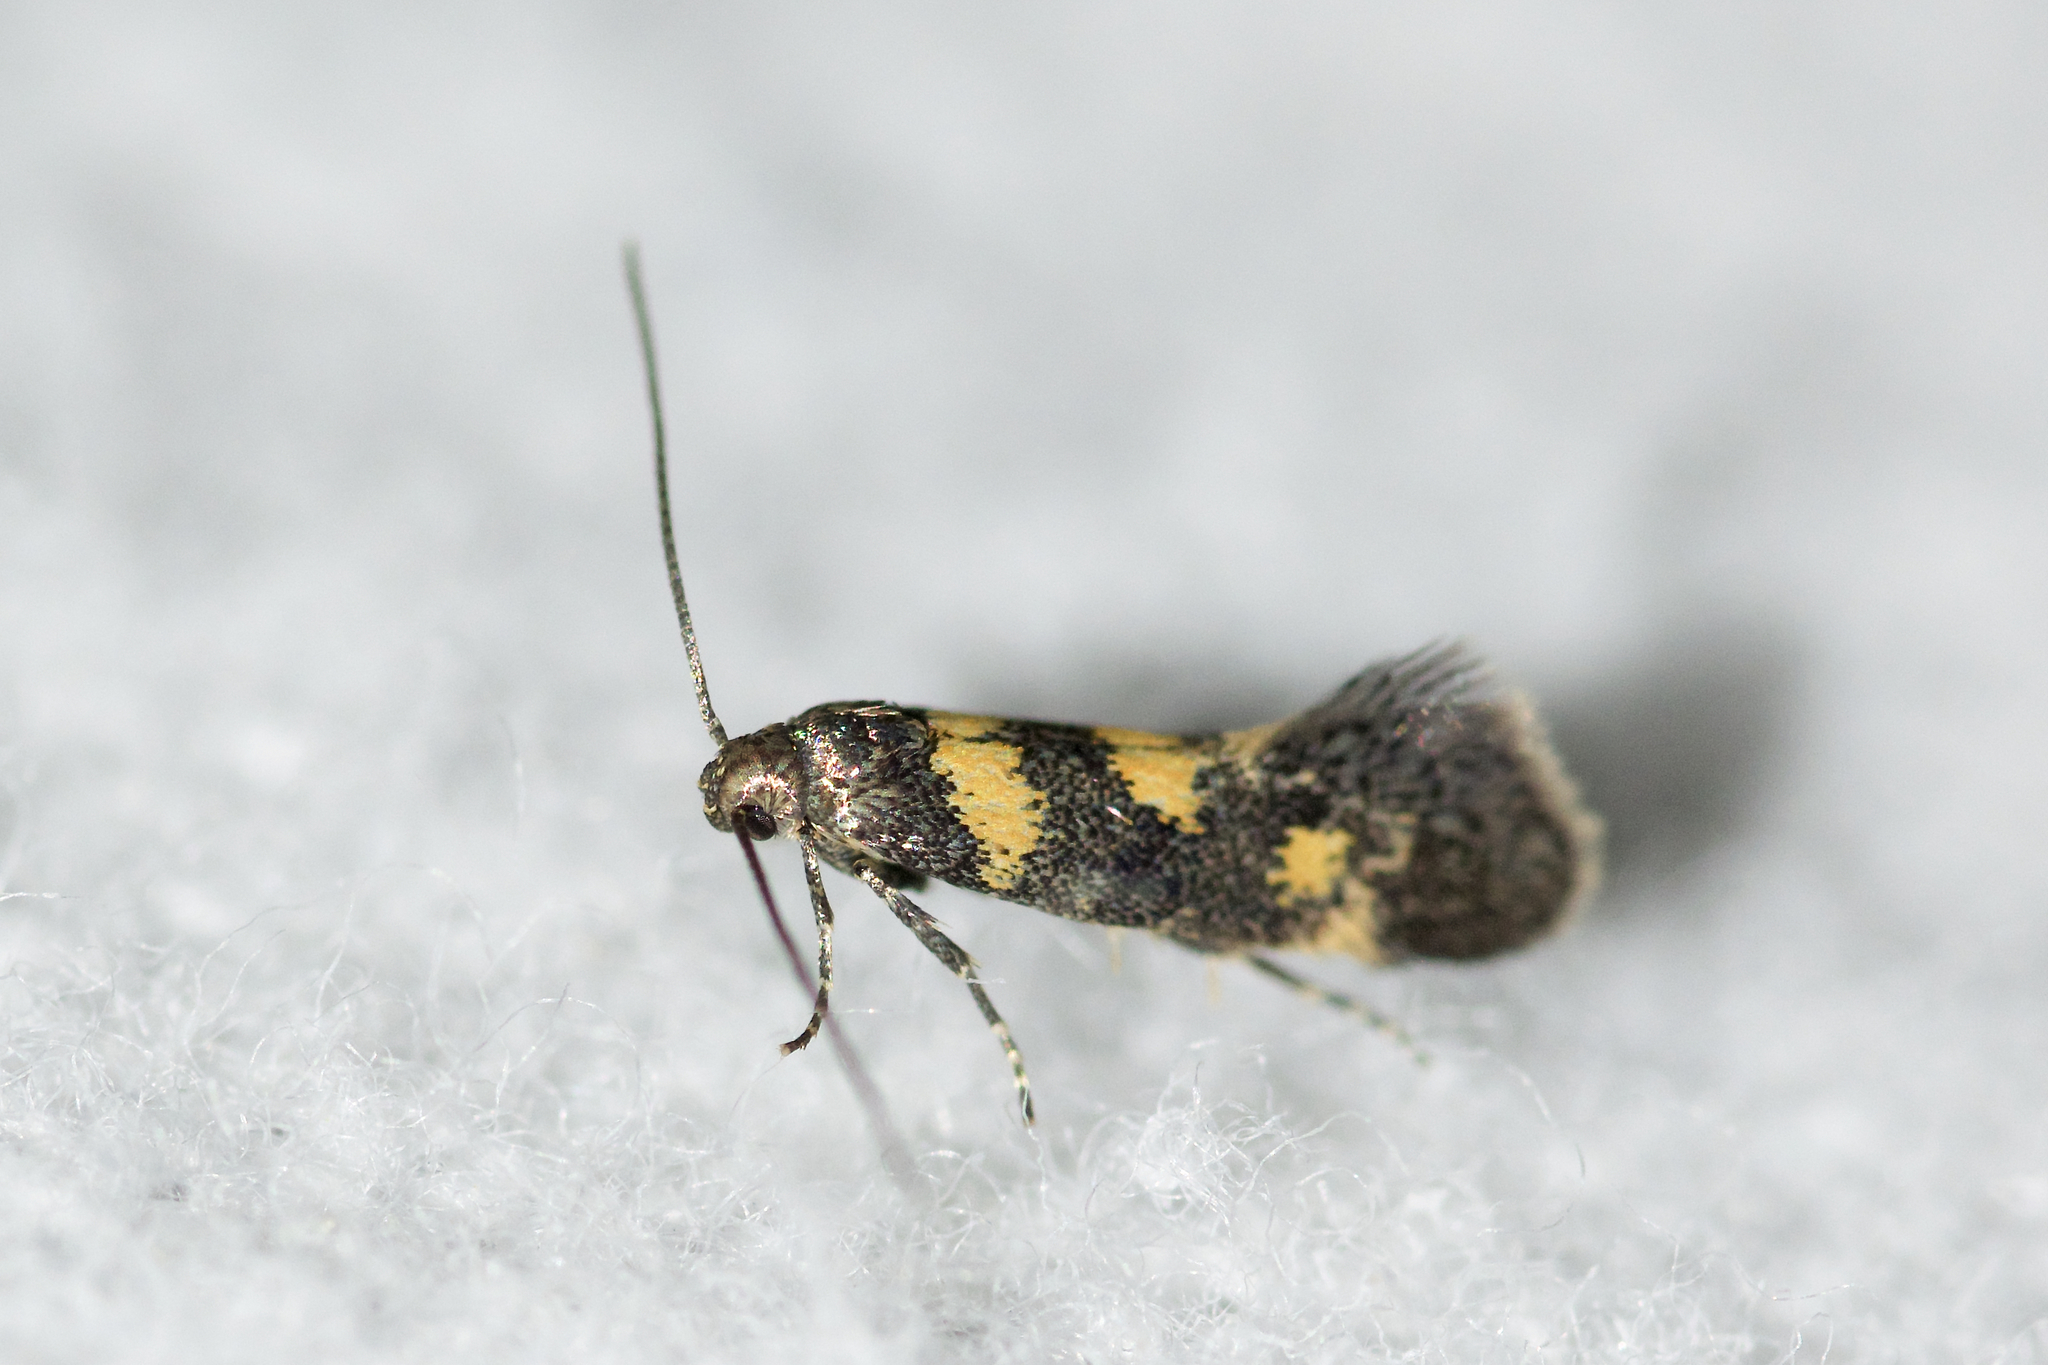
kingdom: Animalia
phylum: Arthropoda
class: Insecta
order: Lepidoptera
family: Gelechiidae
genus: Chrysoesthia
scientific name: Chrysoesthia sexguttella
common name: Moth
